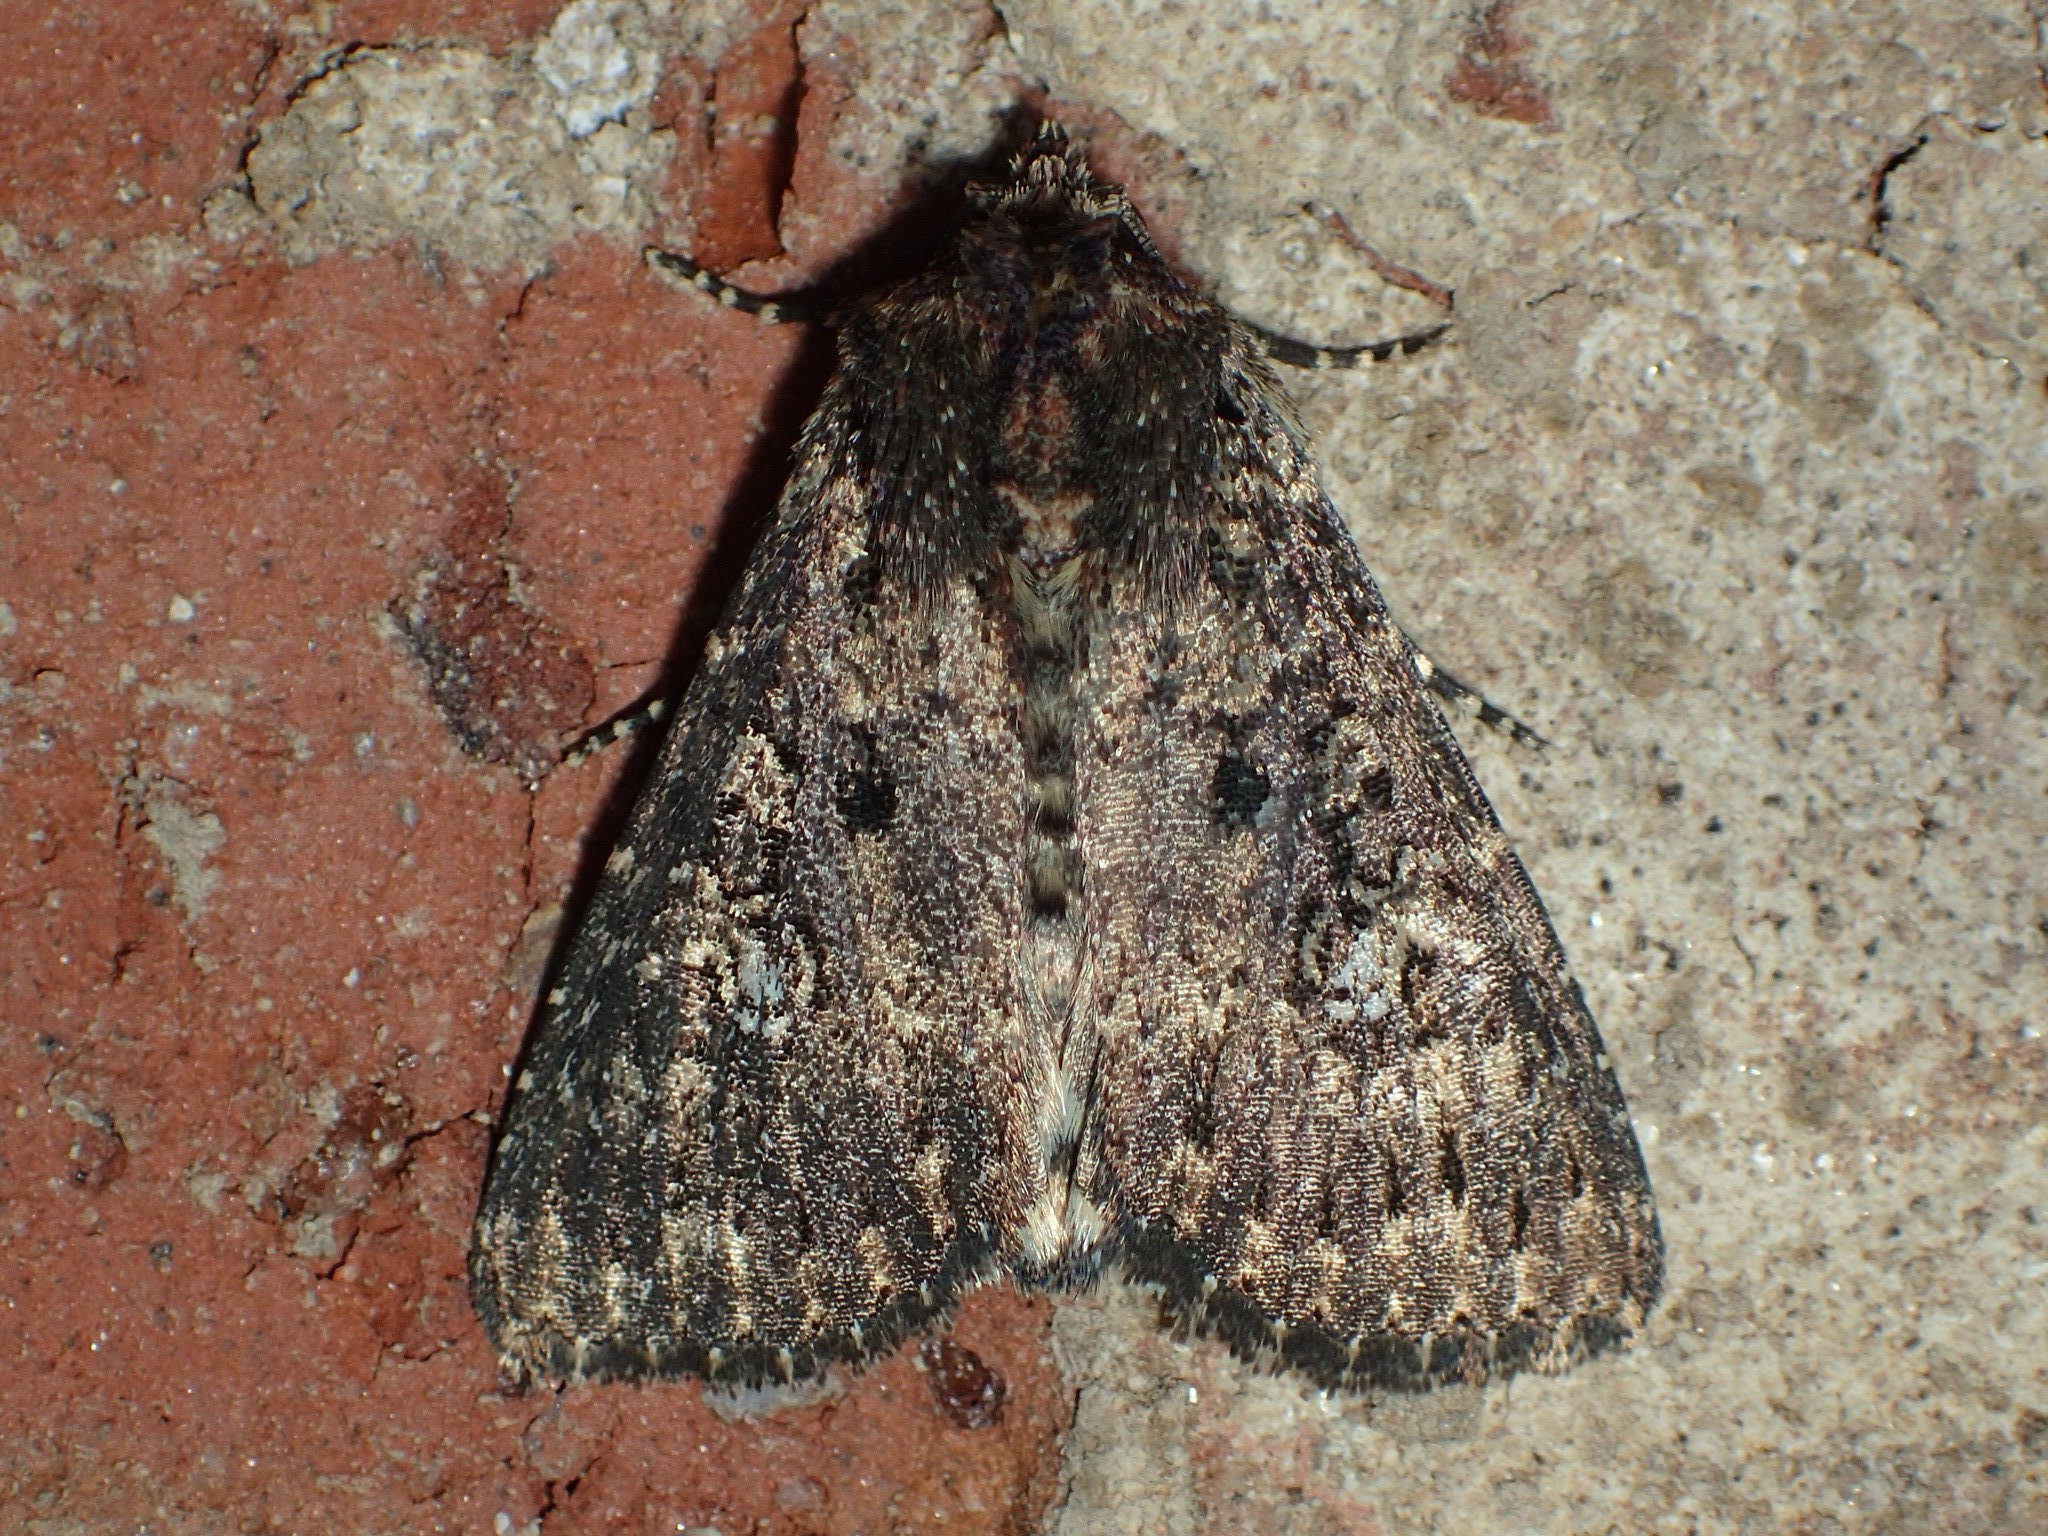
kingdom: Animalia
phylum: Arthropoda
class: Insecta
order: Lepidoptera
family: Noctuidae
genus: Condica
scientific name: Condica vecors
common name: Dusky groundling
